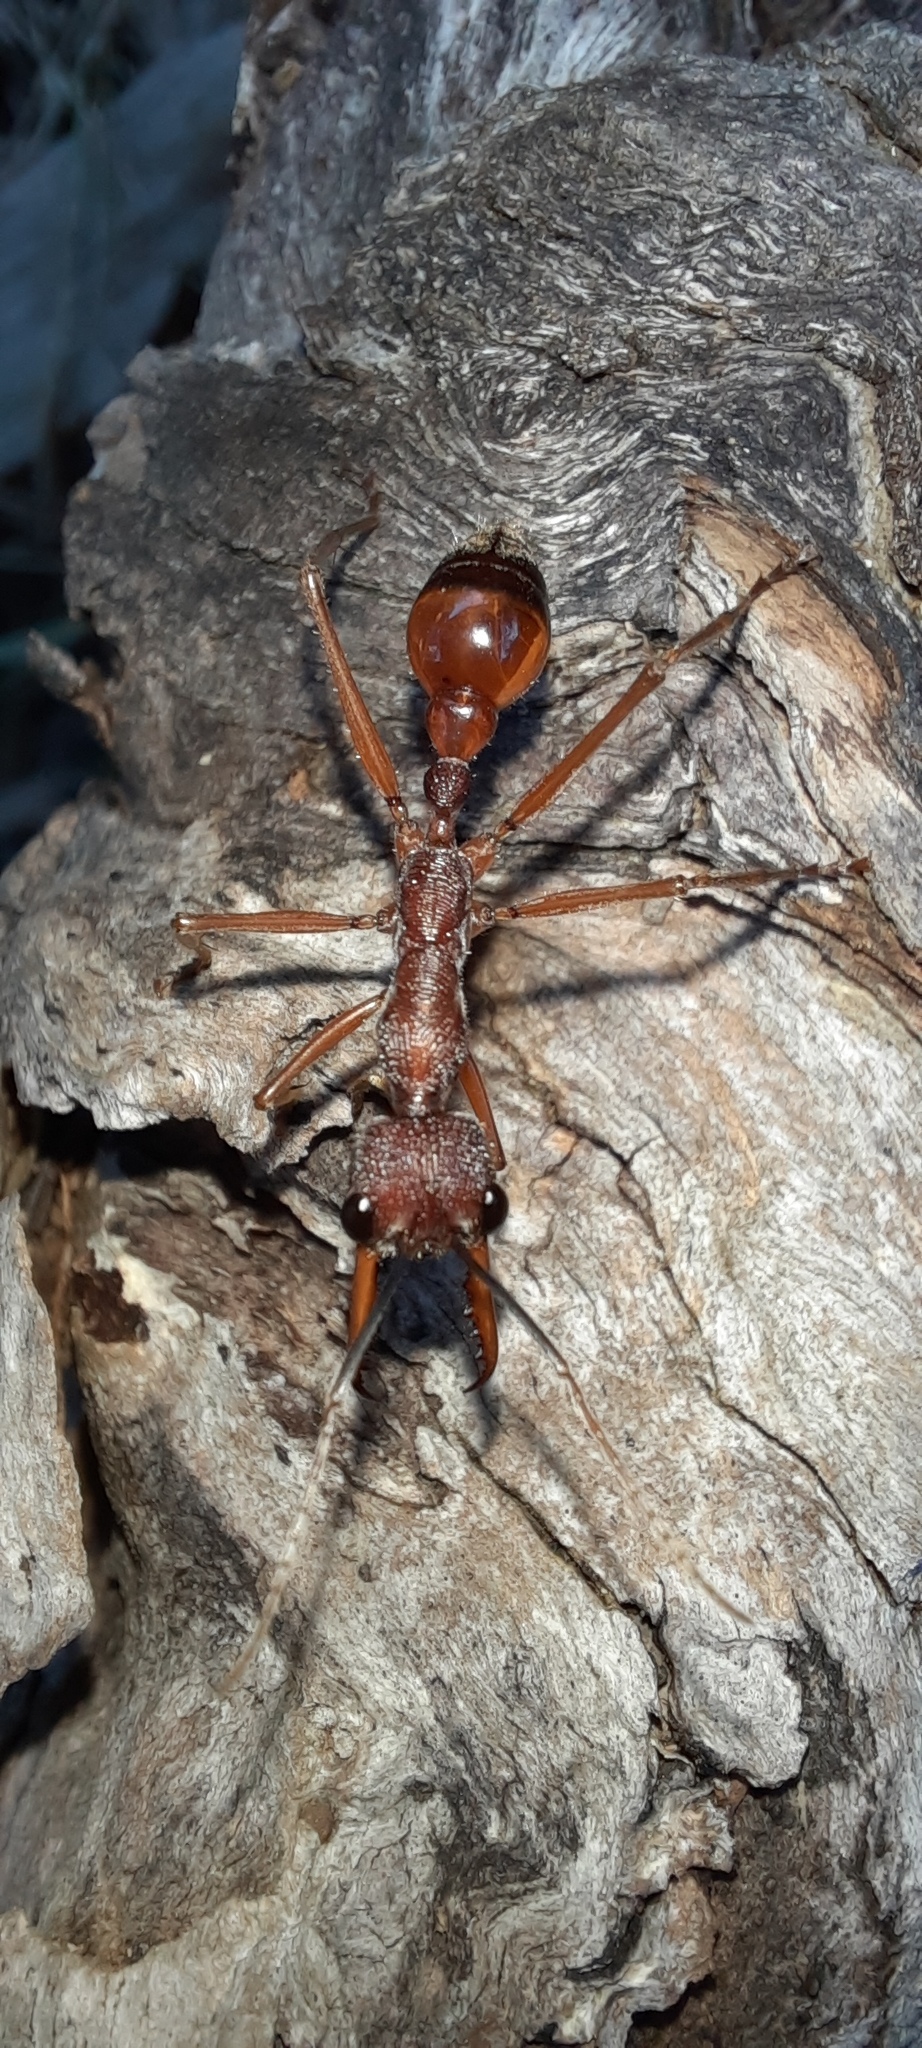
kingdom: Animalia
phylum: Arthropoda
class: Insecta
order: Hymenoptera
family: Formicidae
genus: Myrmecia
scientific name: Myrmecia nigriscapa
